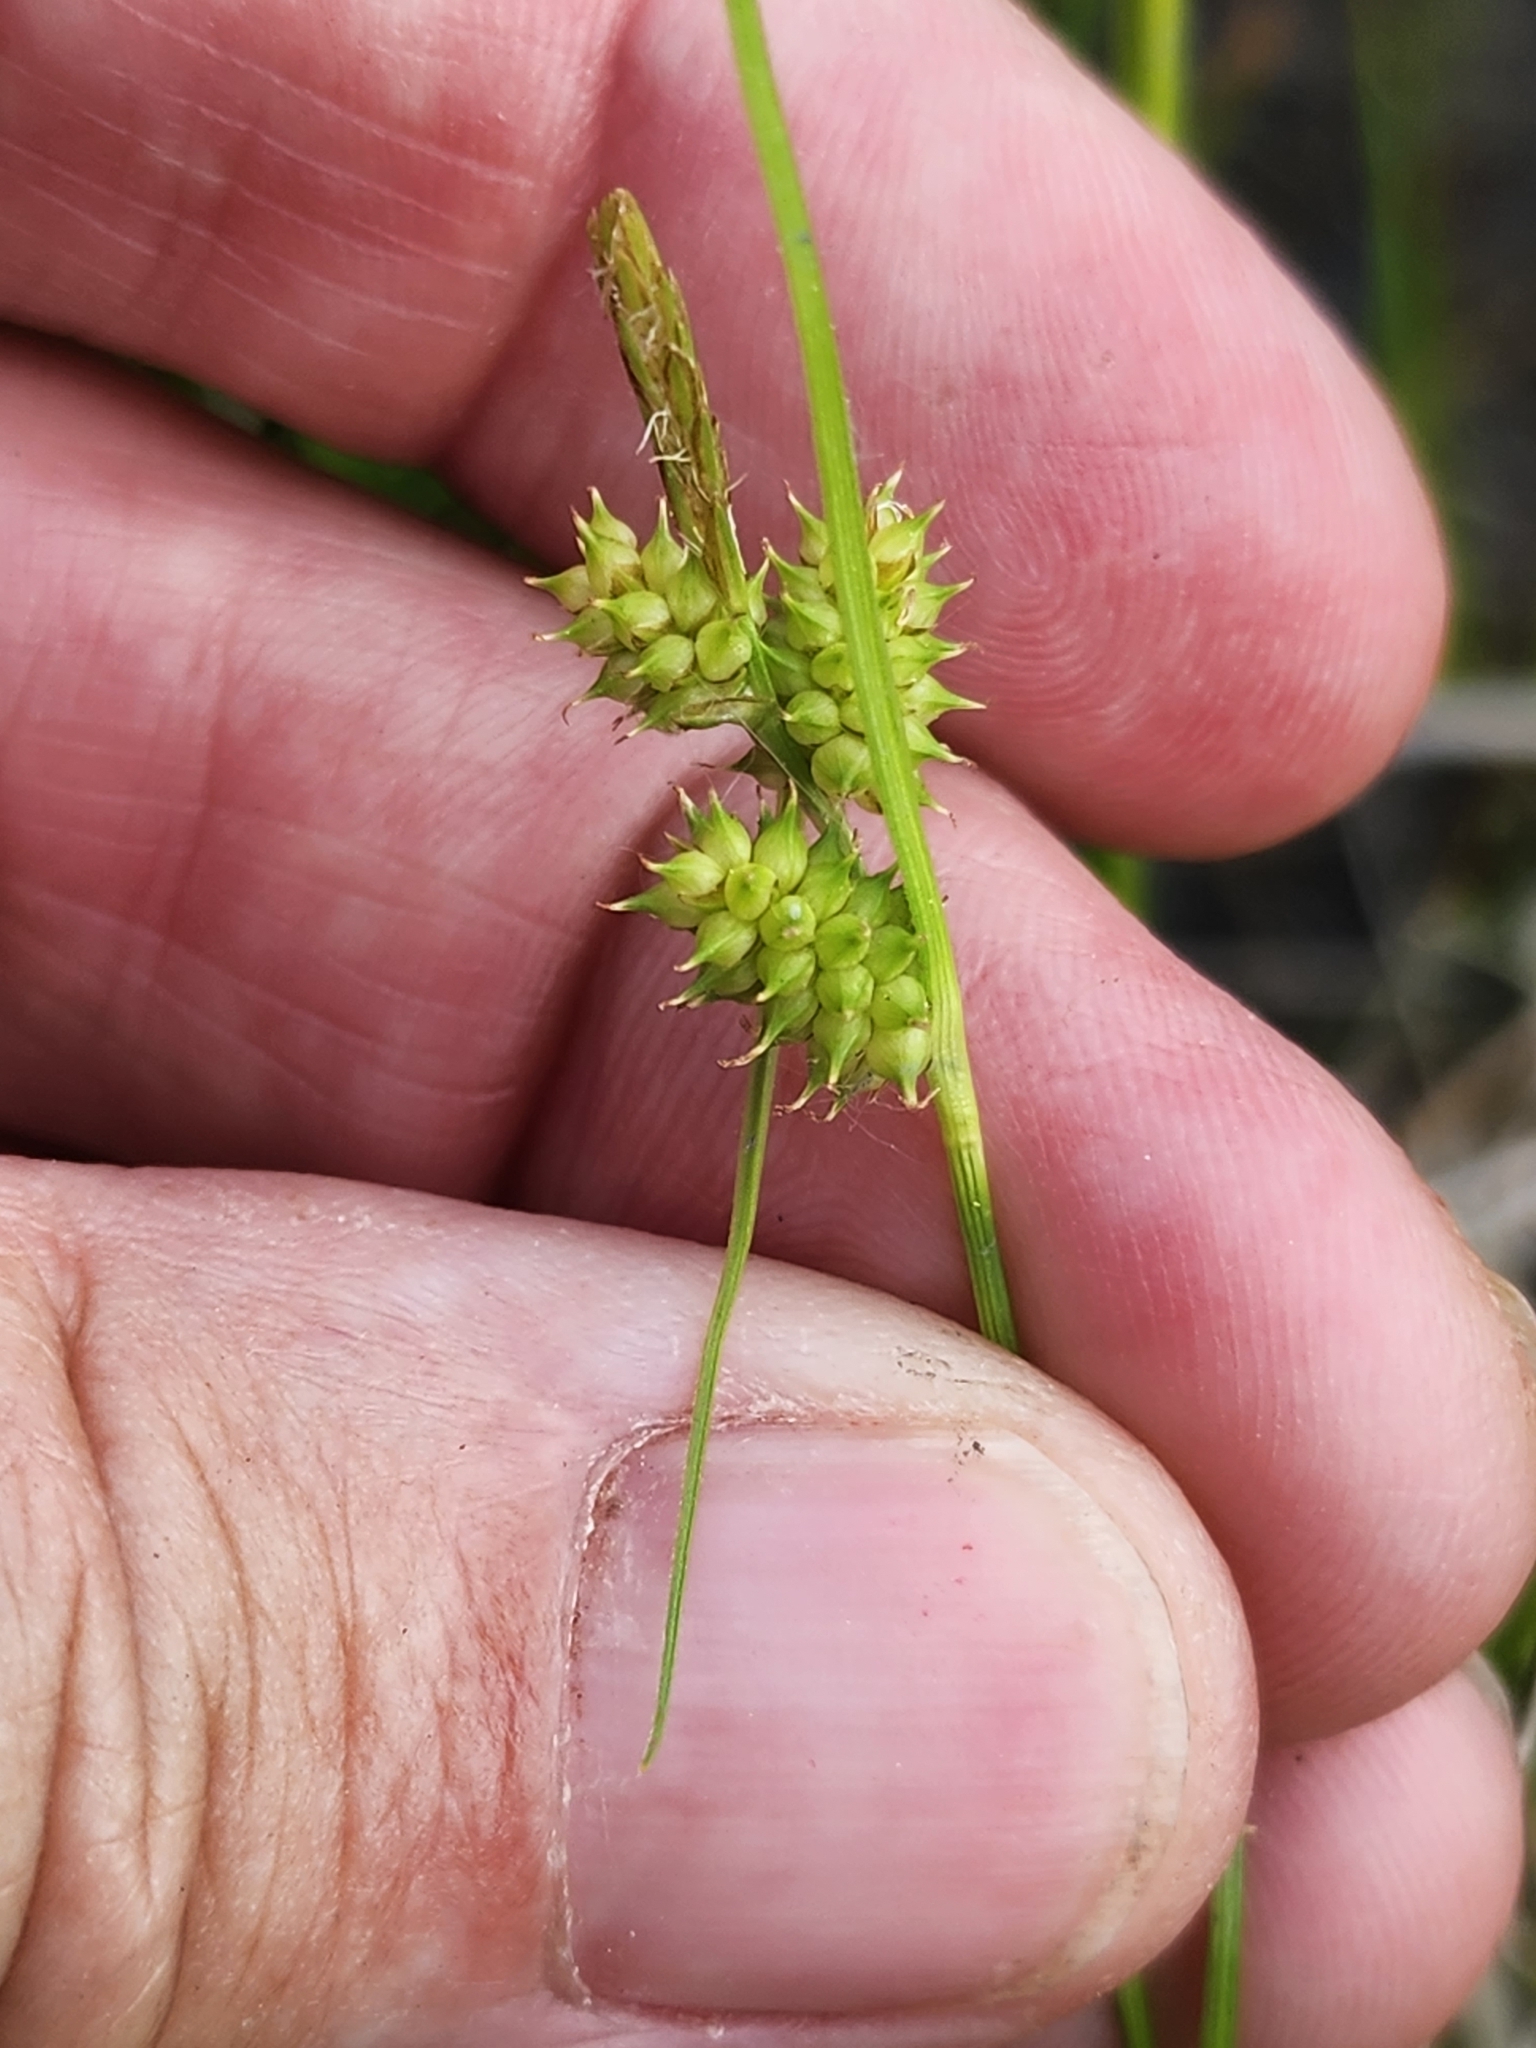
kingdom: Plantae
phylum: Tracheophyta
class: Liliopsida
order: Poales
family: Cyperaceae
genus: Carex
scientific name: Carex
